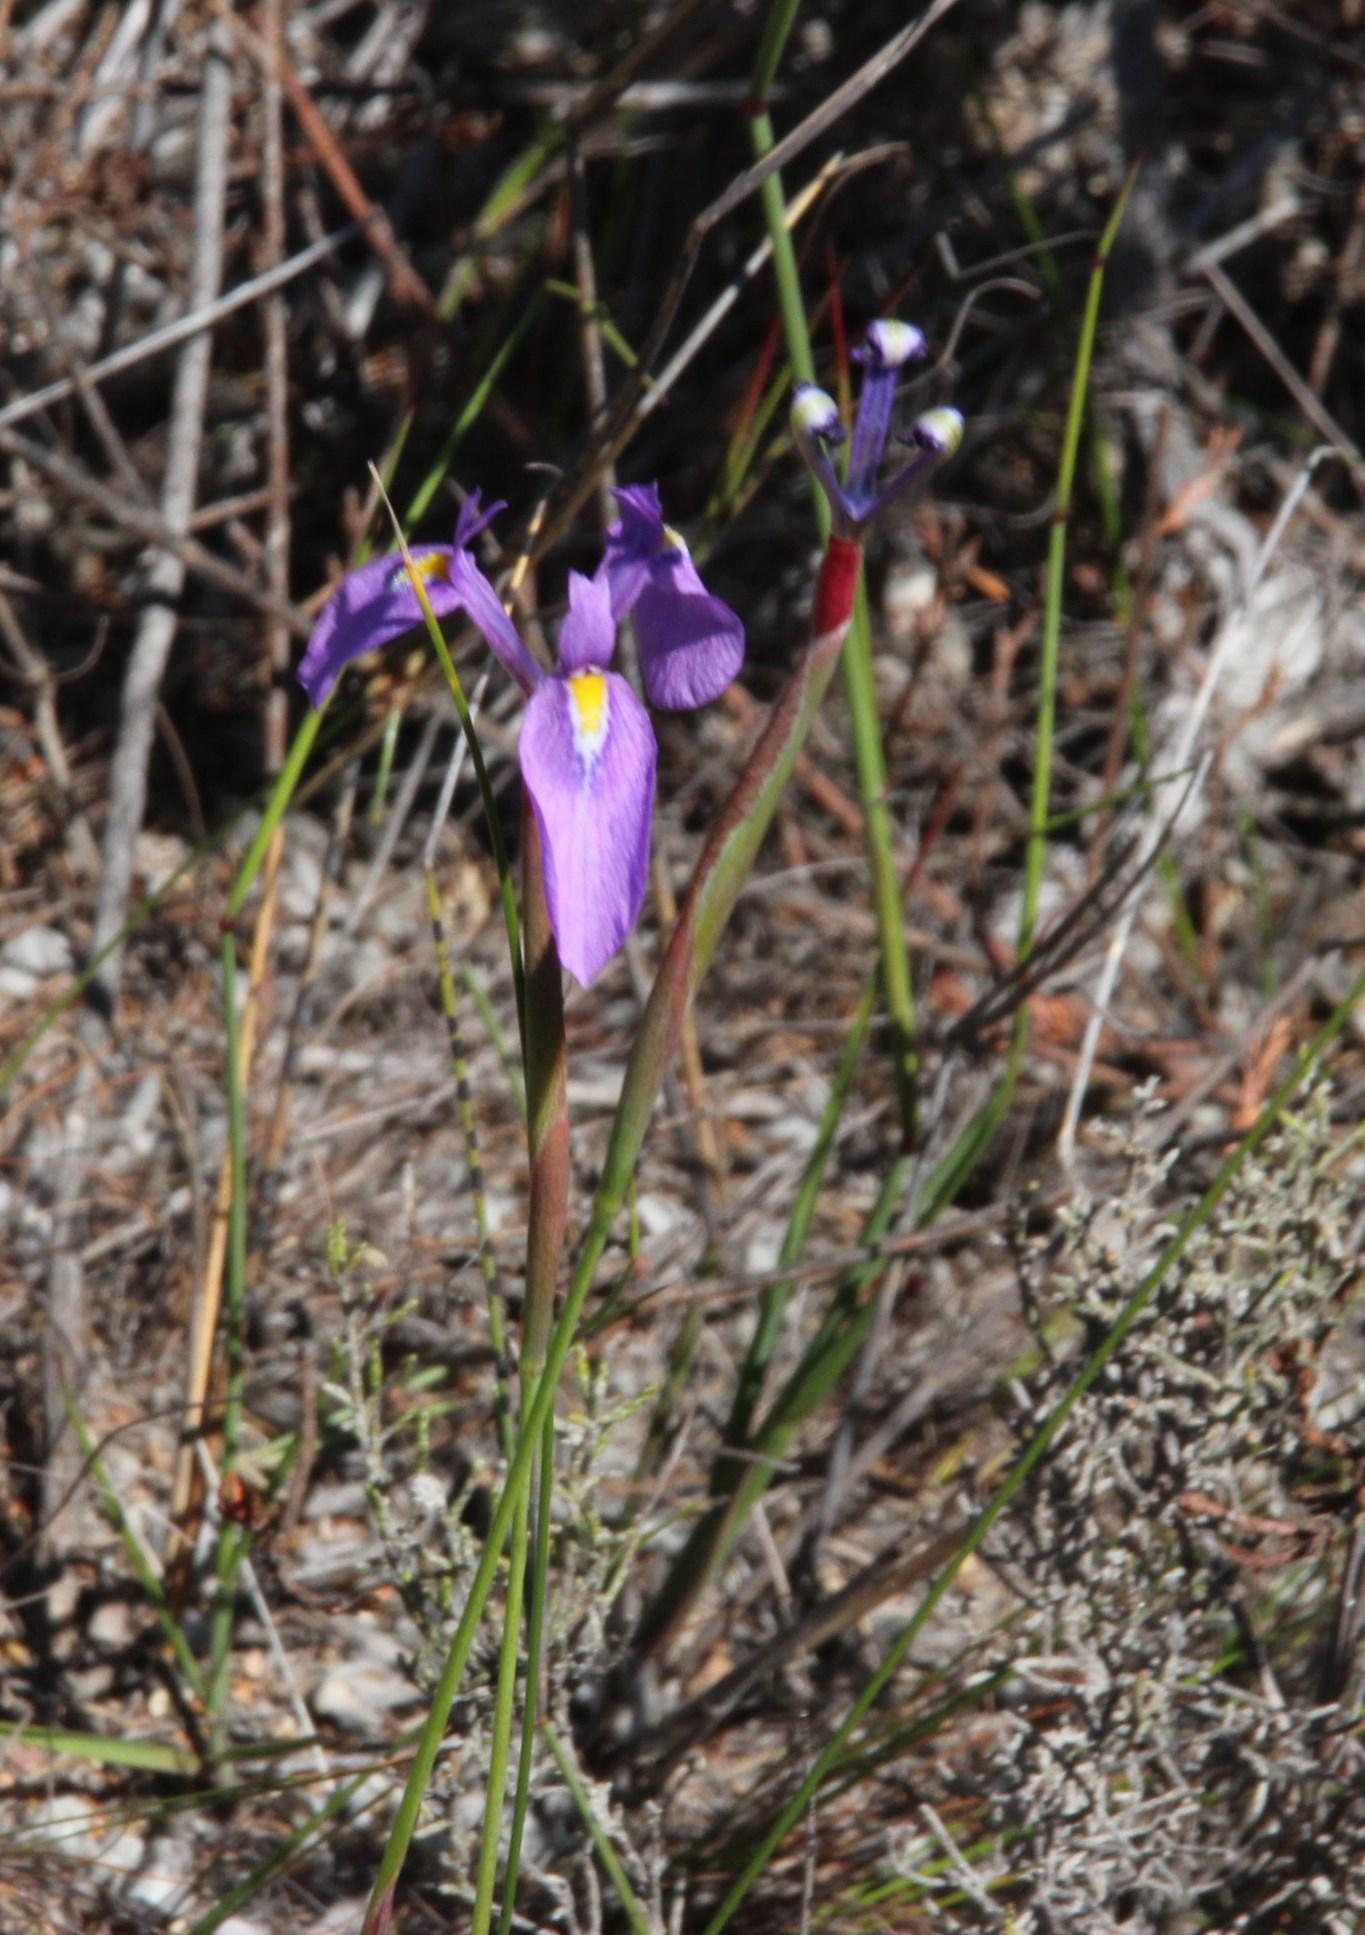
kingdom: Plantae
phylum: Tracheophyta
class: Liliopsida
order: Asparagales
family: Iridaceae
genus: Moraea
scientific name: Moraea tripetala
